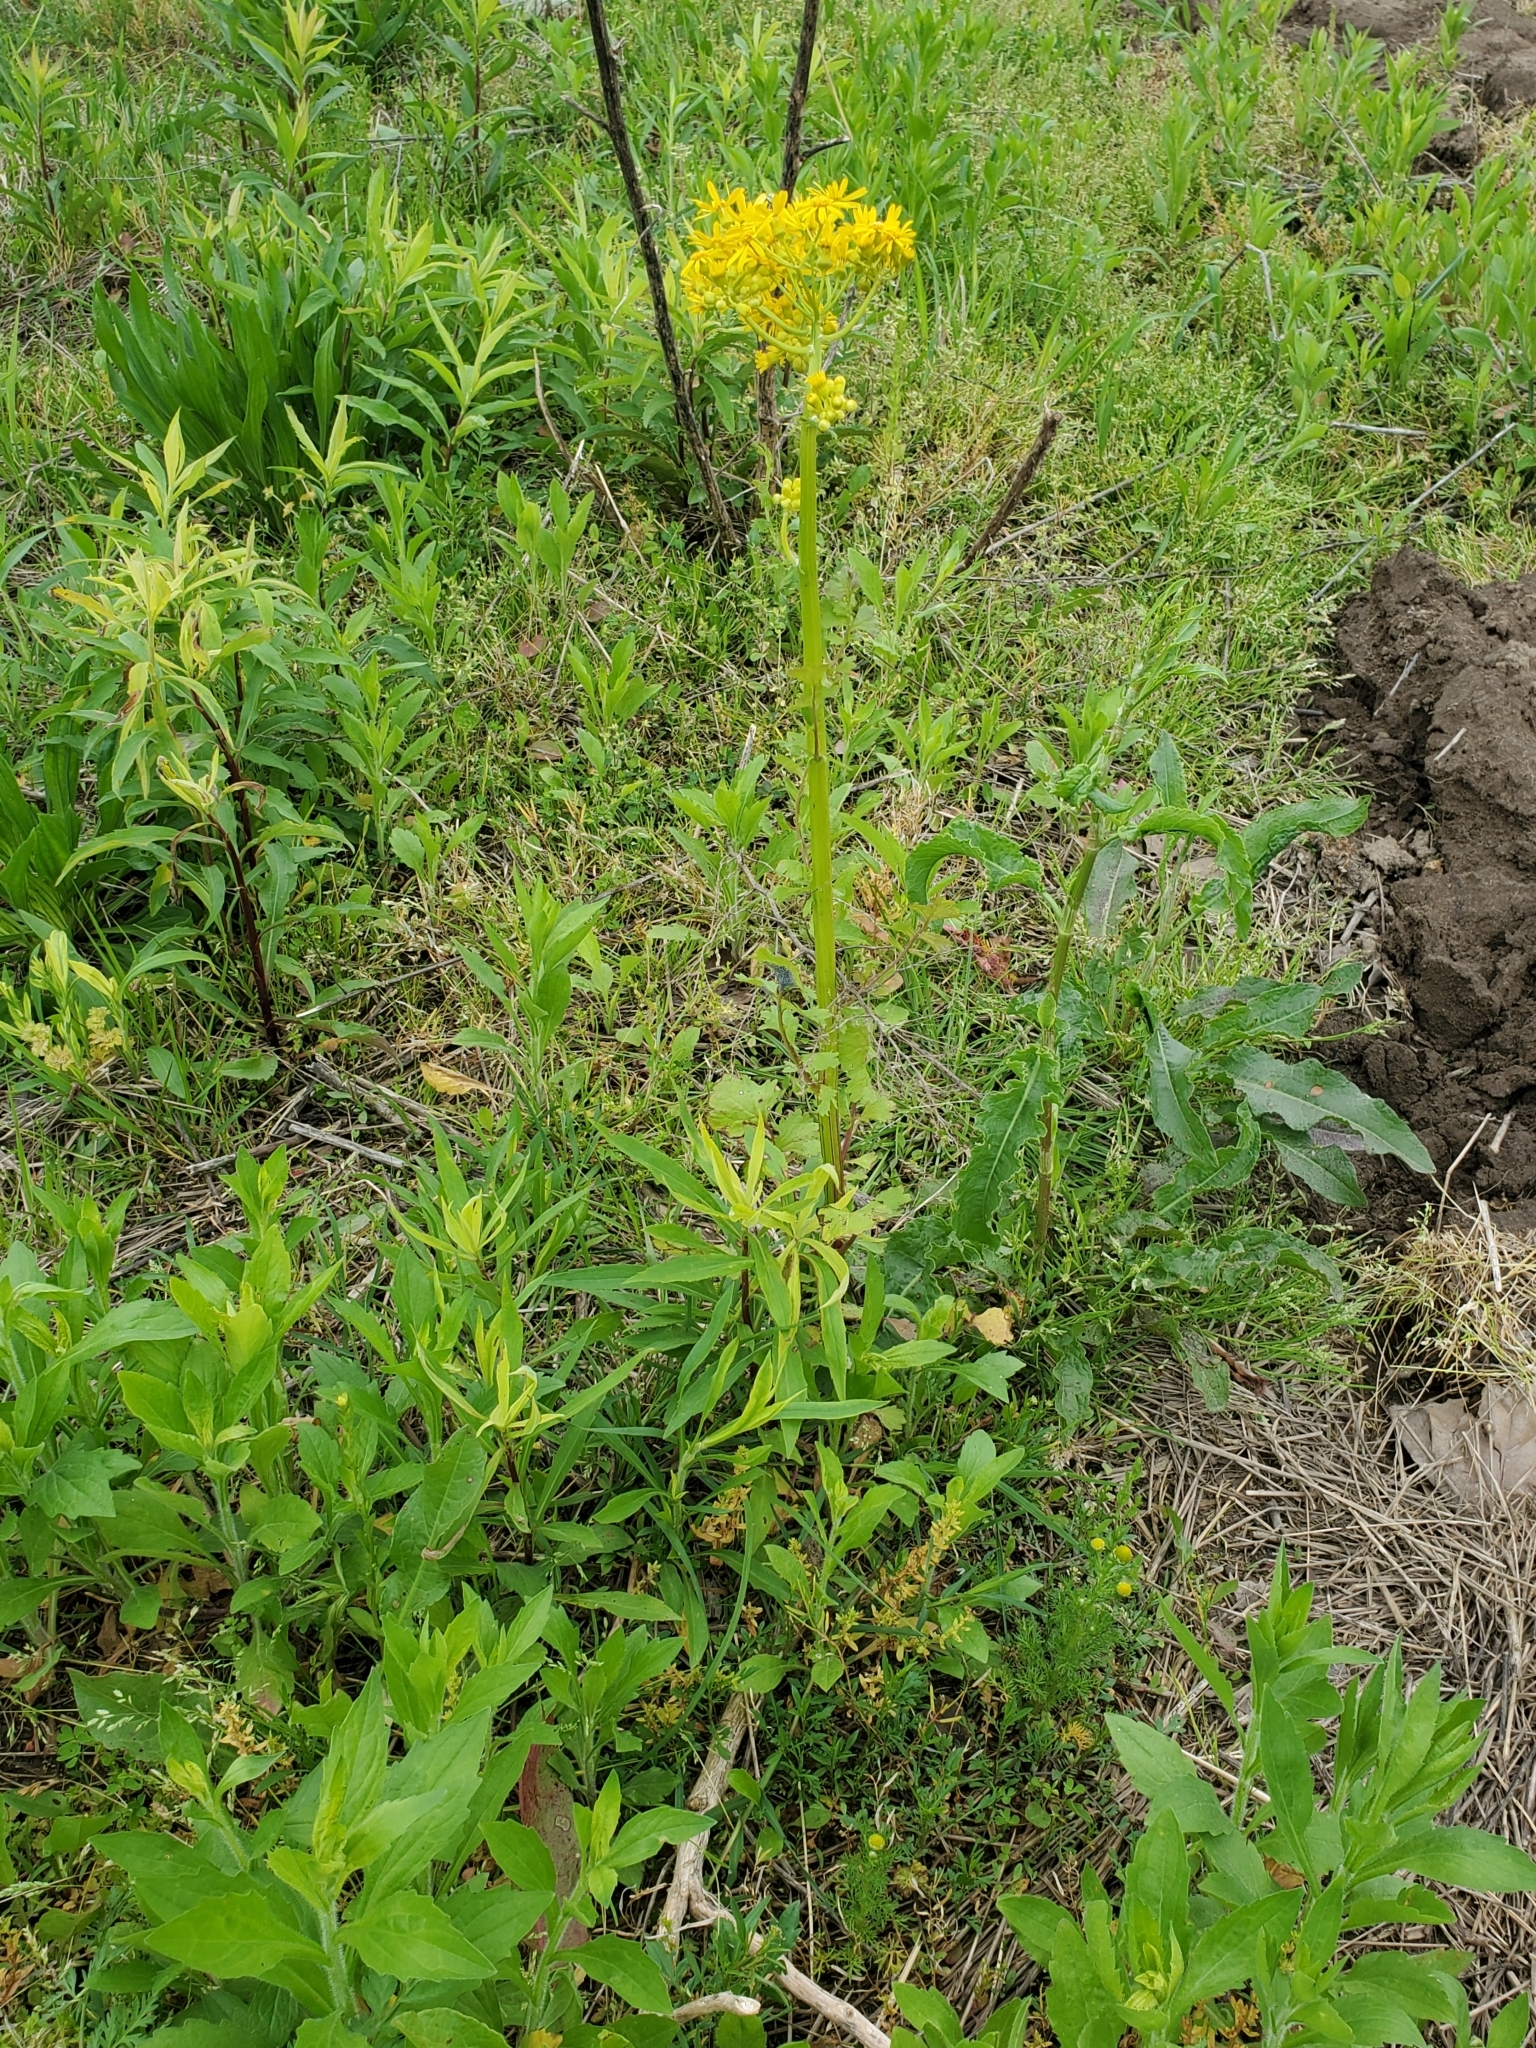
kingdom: Plantae
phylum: Tracheophyta
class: Magnoliopsida
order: Asterales
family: Asteraceae
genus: Packera
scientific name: Packera glabella
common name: Butterweed
